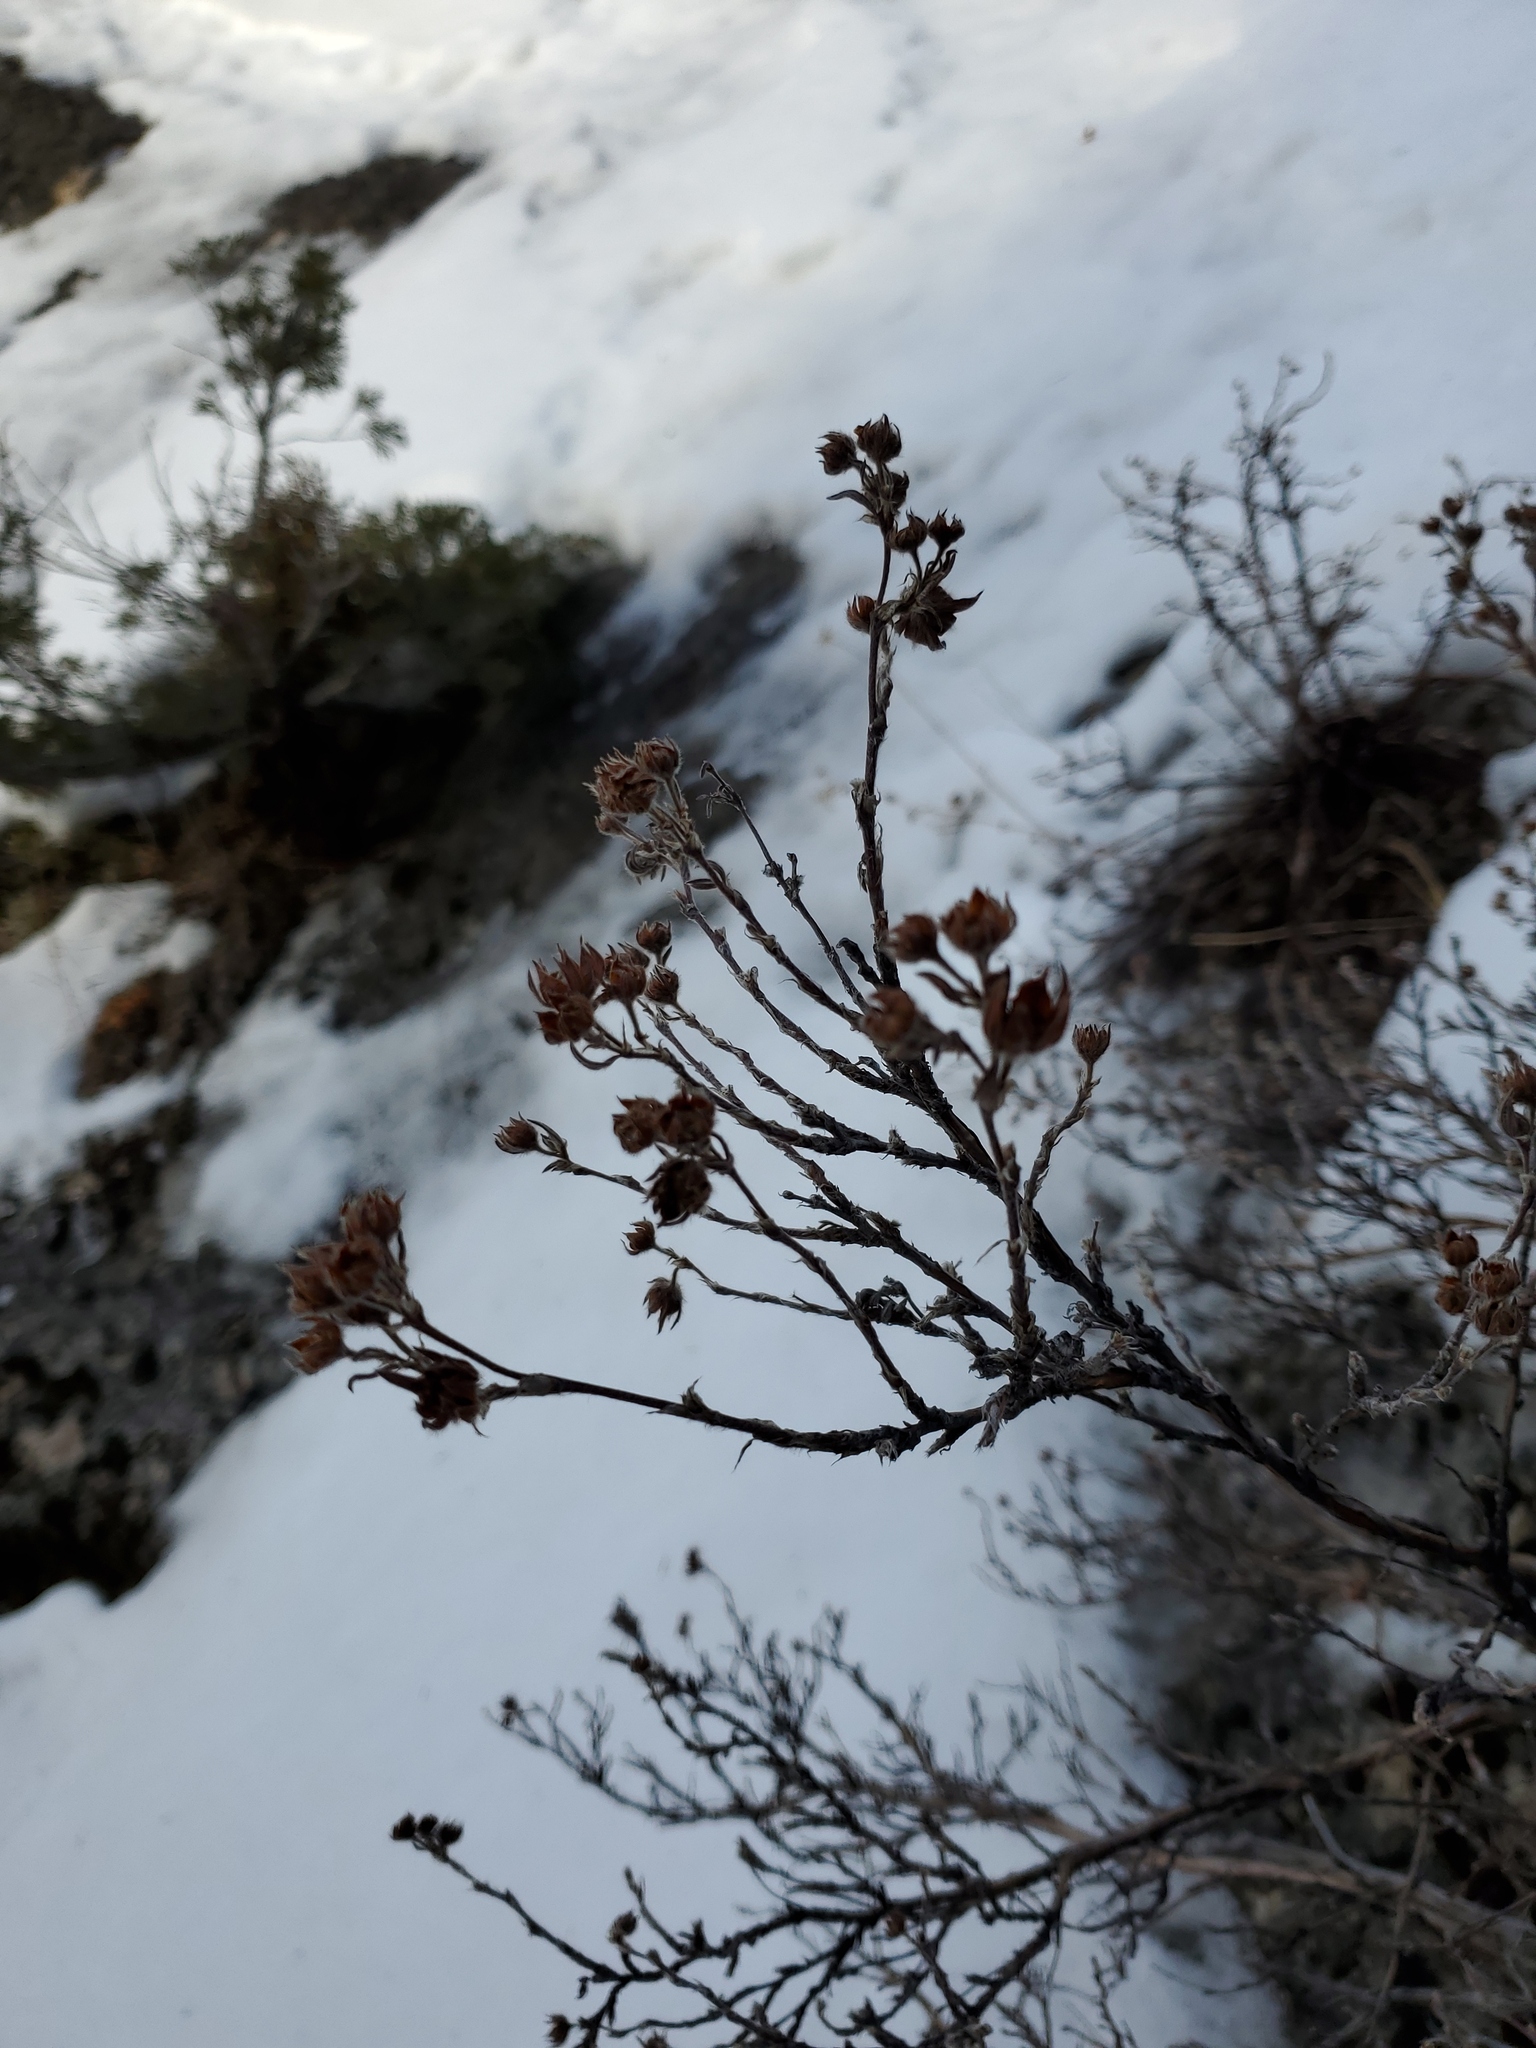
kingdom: Plantae
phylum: Tracheophyta
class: Magnoliopsida
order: Rosales
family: Rosaceae
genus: Dasiphora
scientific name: Dasiphora fruticosa
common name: Shrubby cinquefoil
